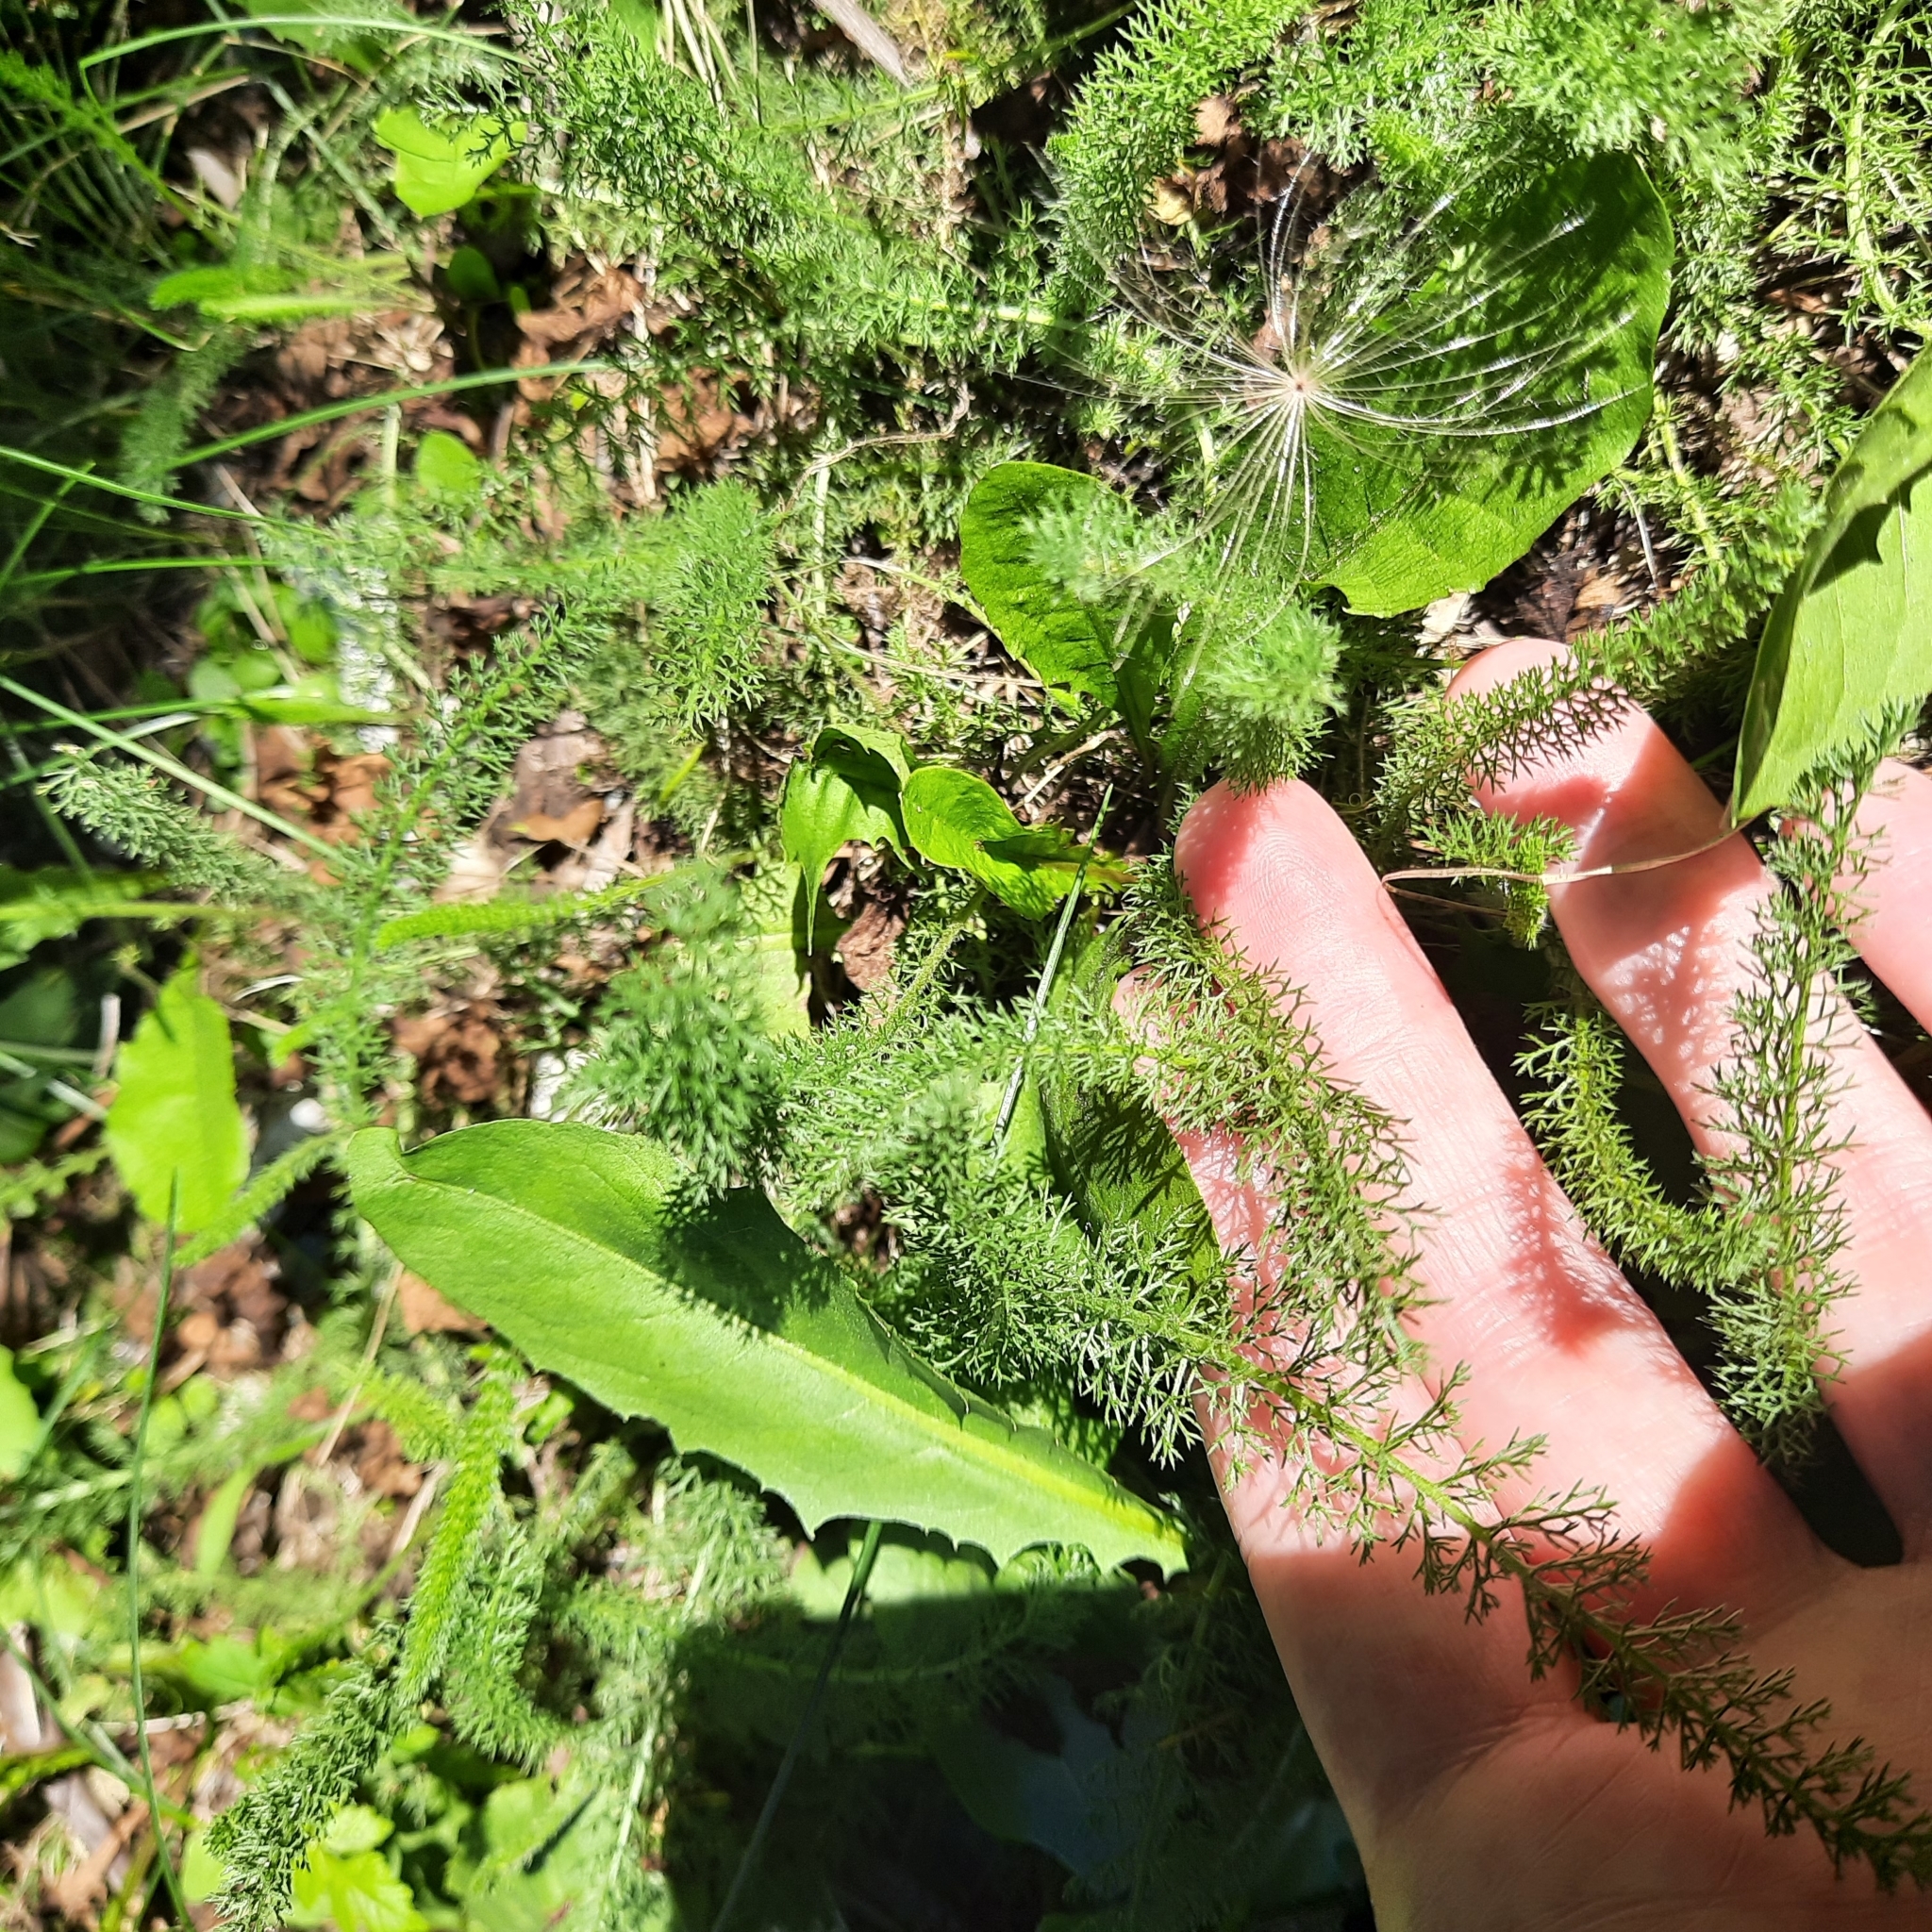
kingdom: Plantae
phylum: Tracheophyta
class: Magnoliopsida
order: Asterales
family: Asteraceae
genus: Achillea
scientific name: Achillea setacea
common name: Bristly yarrow
